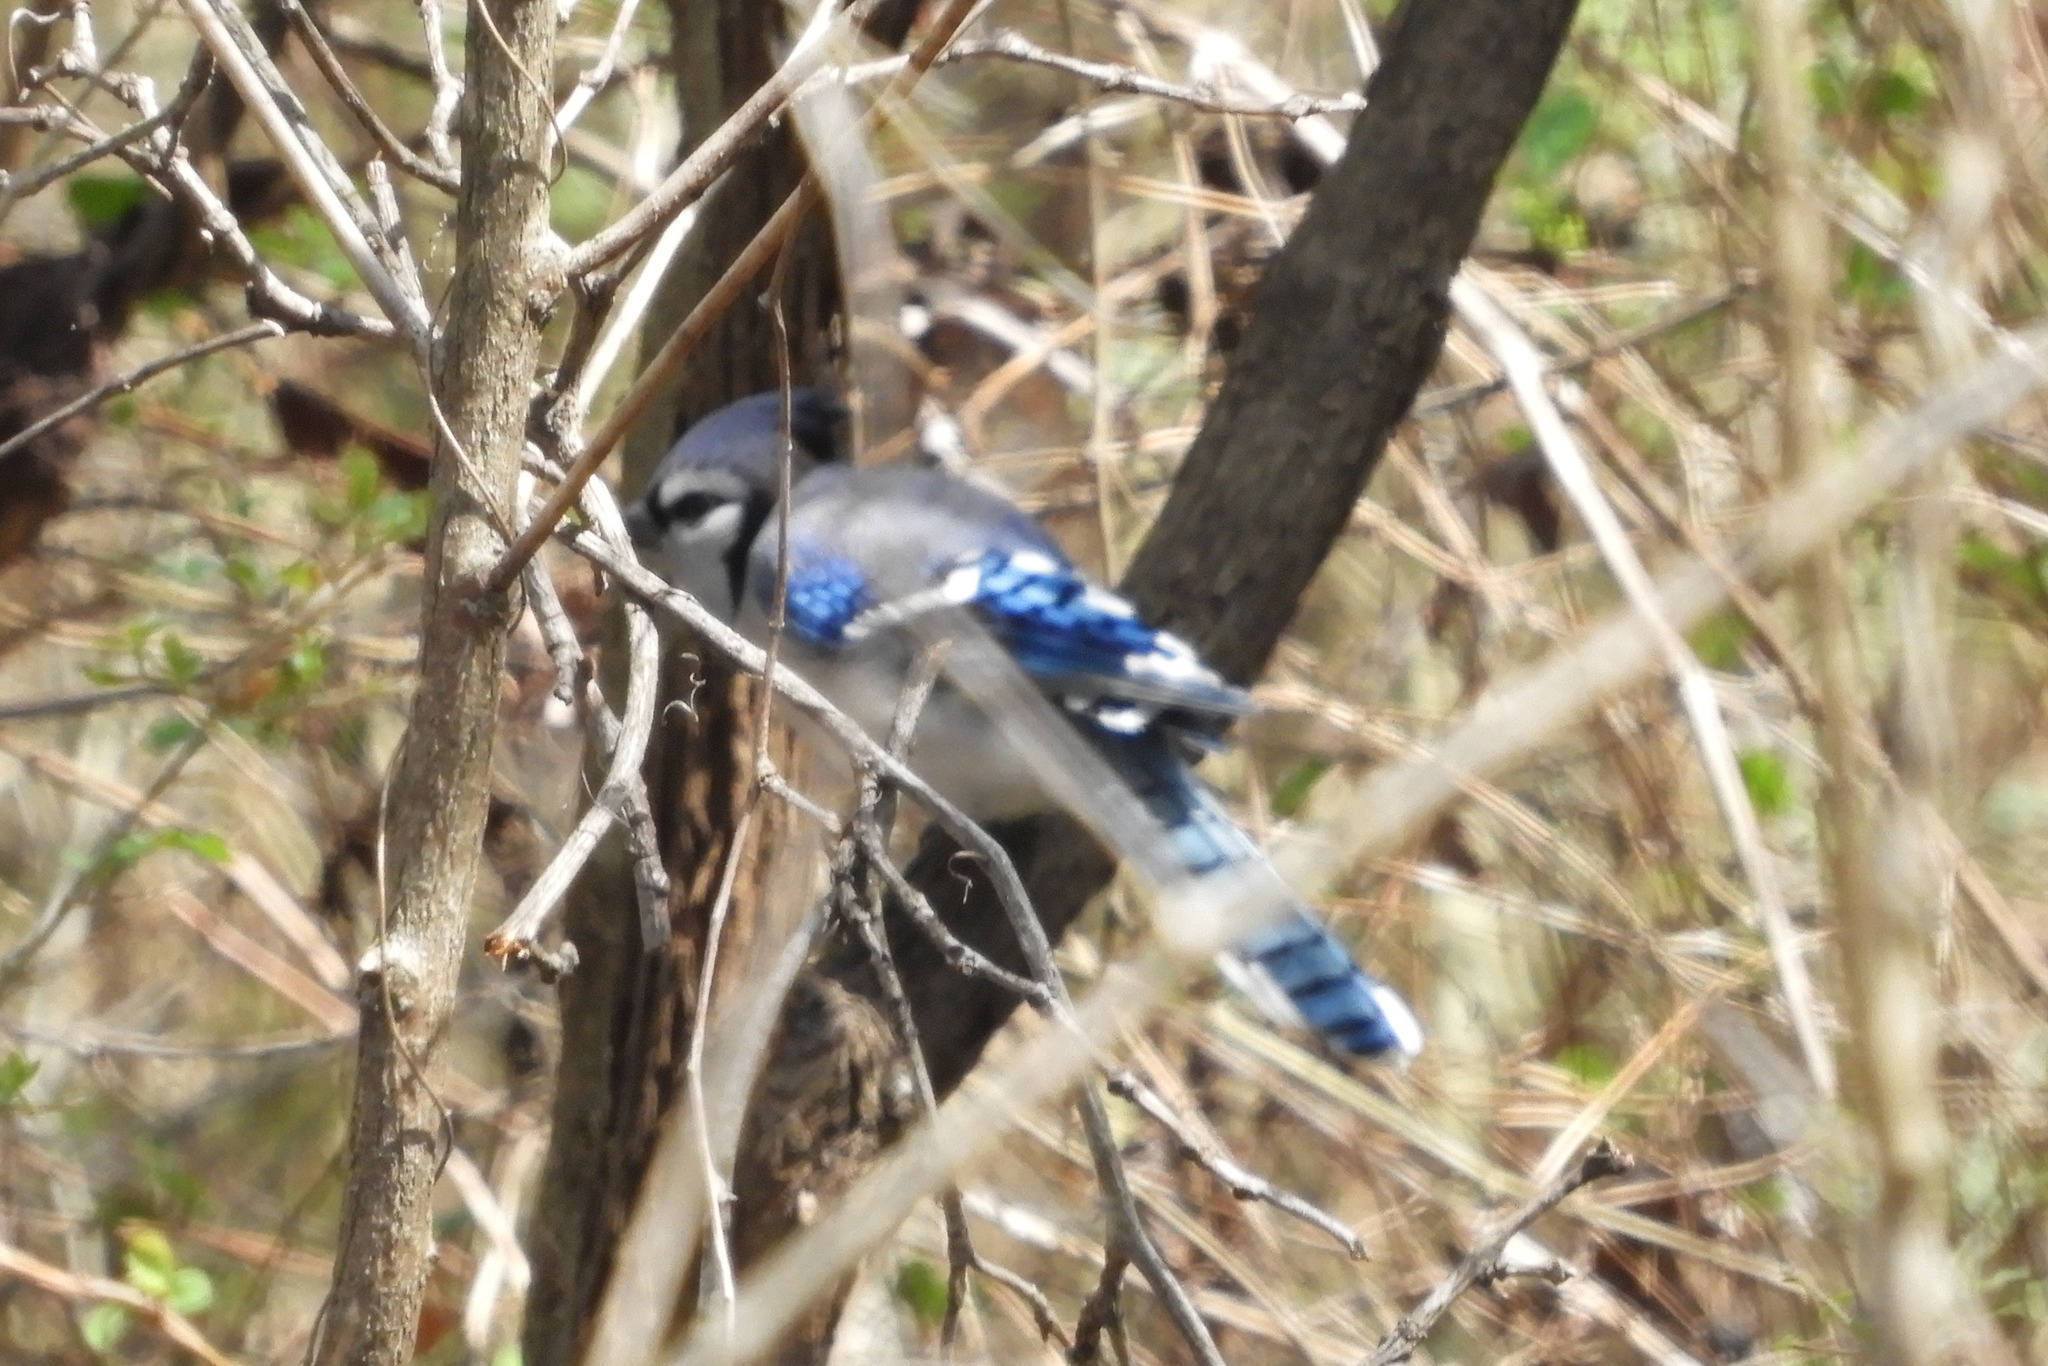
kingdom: Animalia
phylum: Chordata
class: Aves
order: Passeriformes
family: Corvidae
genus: Cyanocitta
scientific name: Cyanocitta cristata
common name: Blue jay
